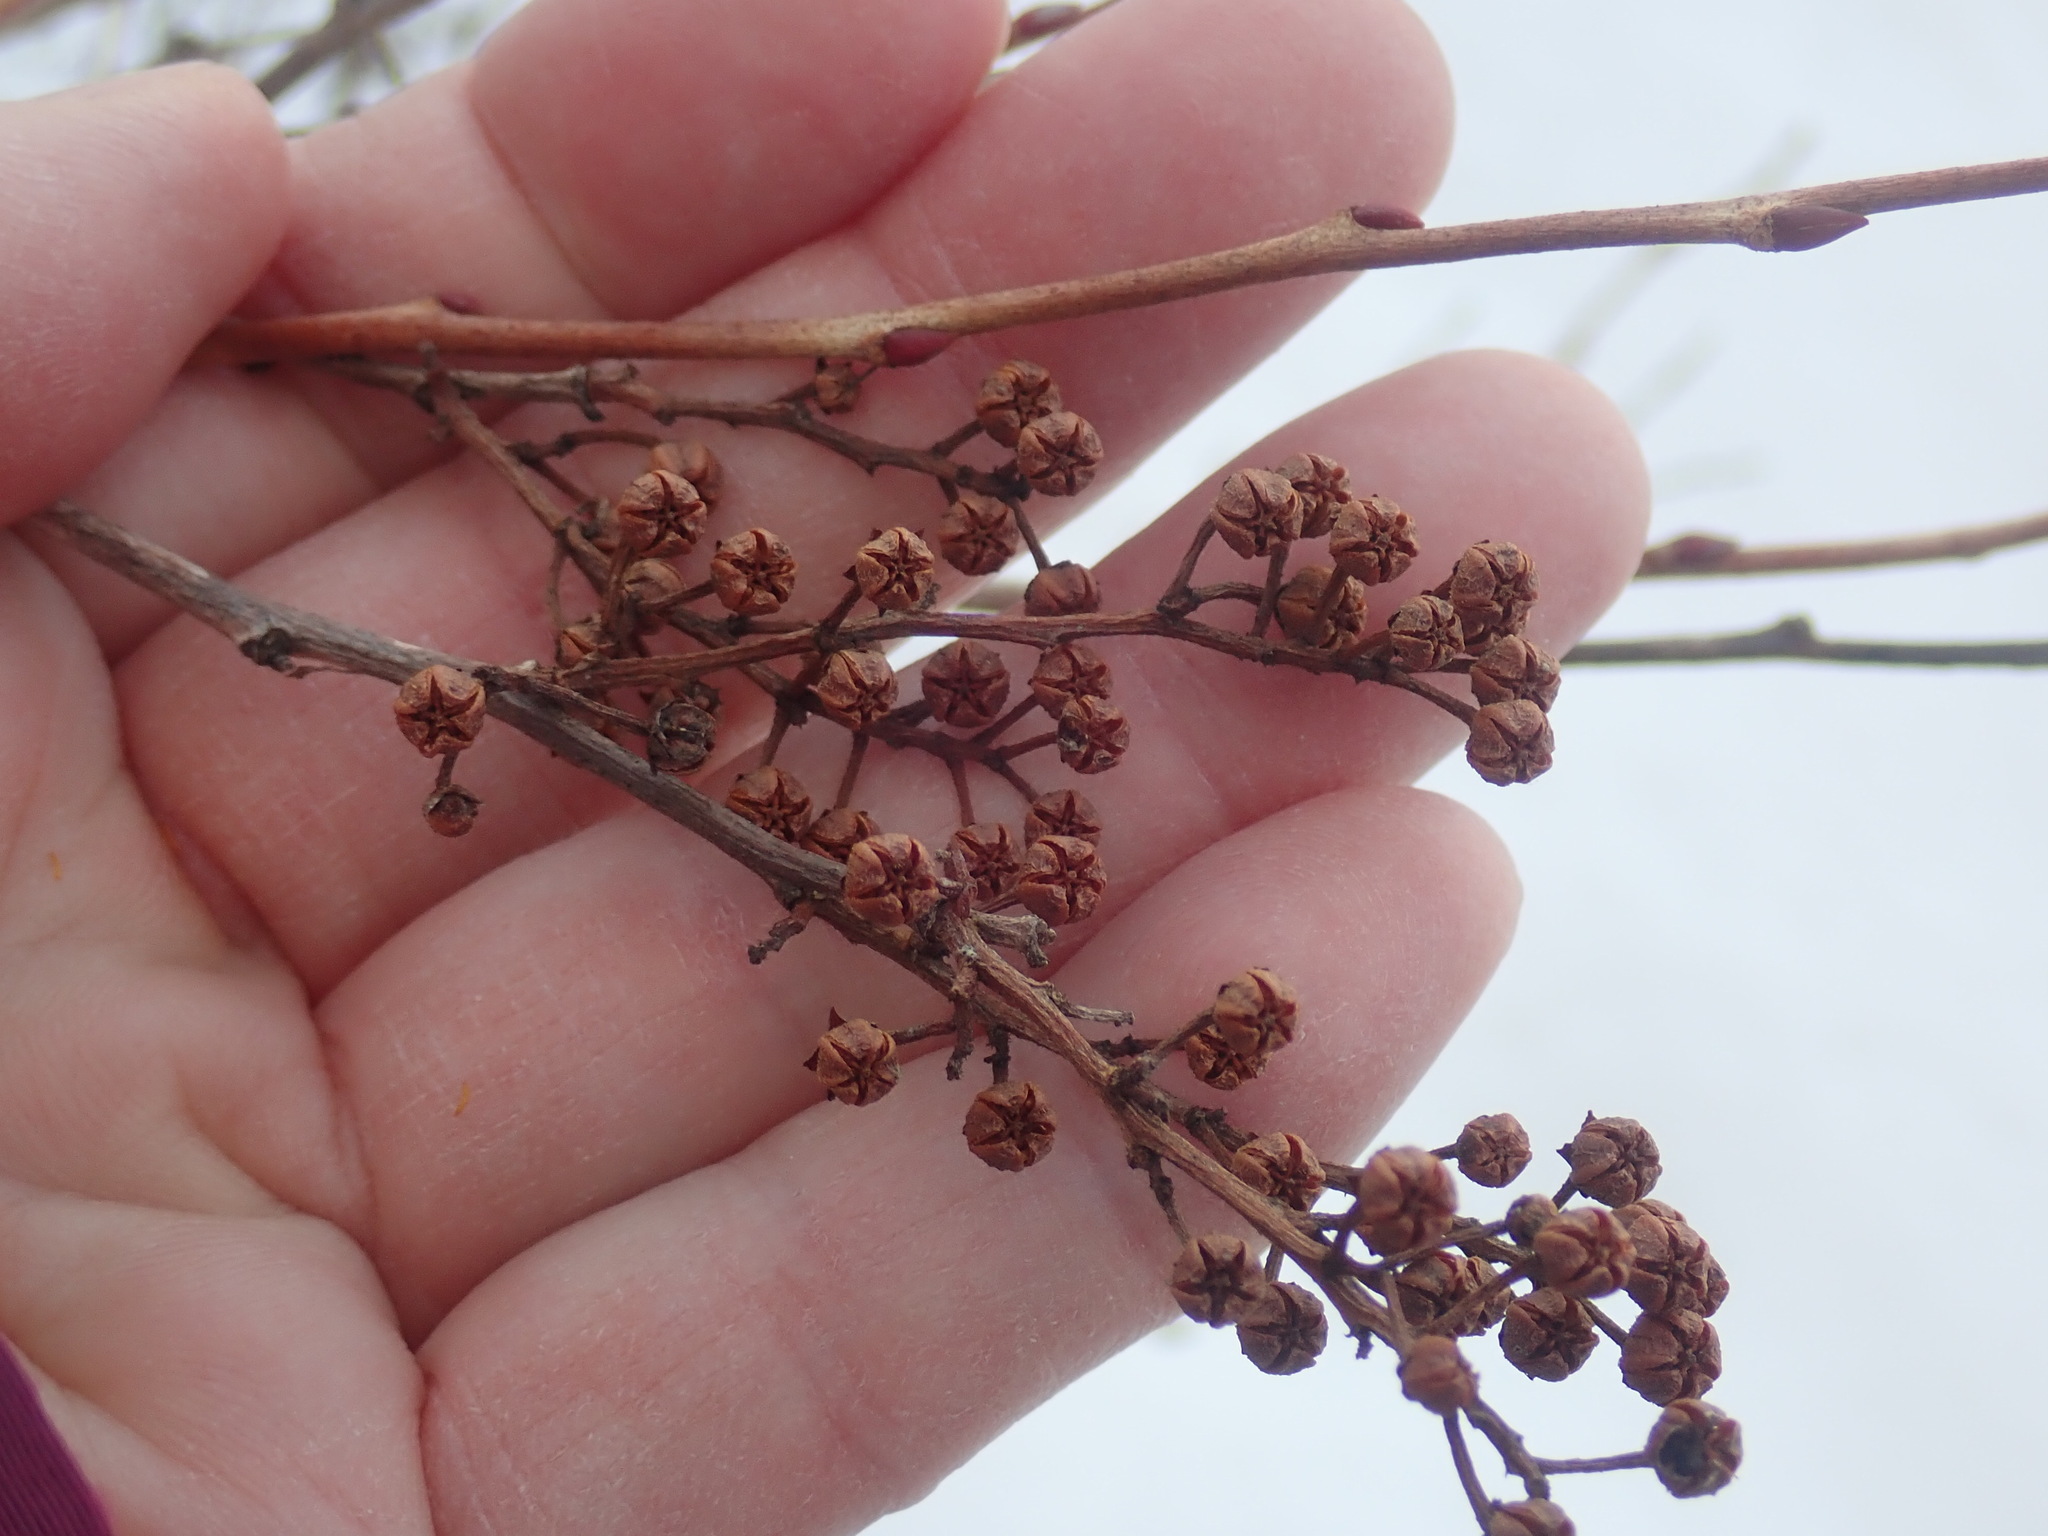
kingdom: Plantae
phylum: Tracheophyta
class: Magnoliopsida
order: Ericales
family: Ericaceae
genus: Lyonia
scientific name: Lyonia ligustrina
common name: Maleberry
